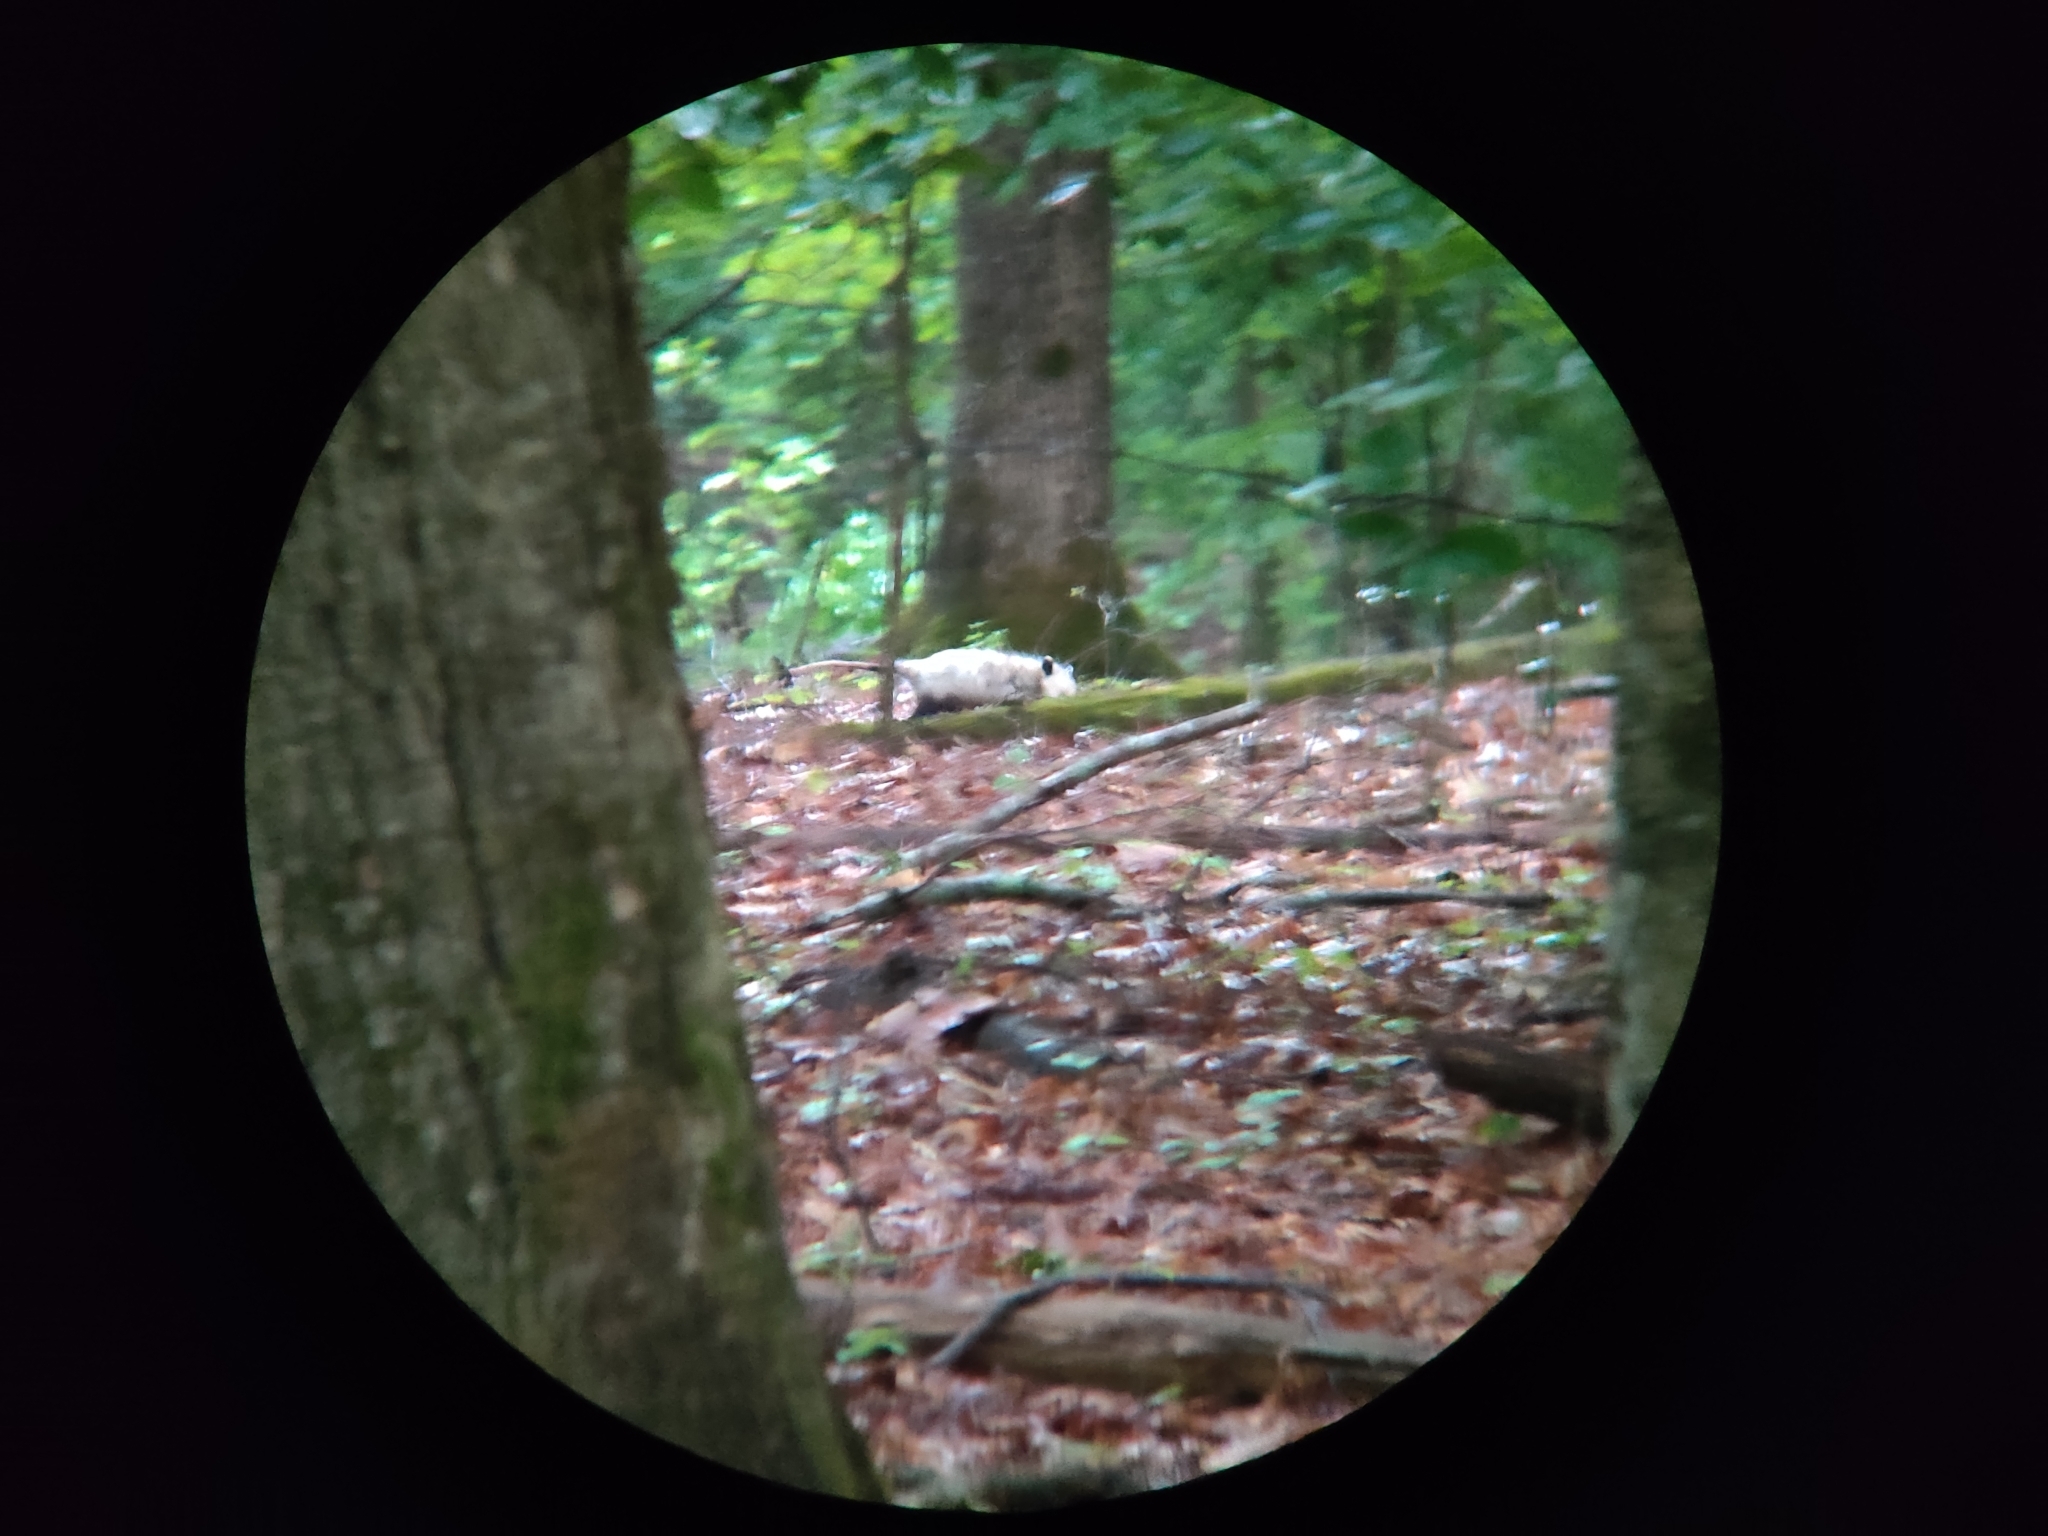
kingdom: Animalia
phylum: Chordata
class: Mammalia
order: Didelphimorphia
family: Didelphidae
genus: Didelphis
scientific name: Didelphis virginiana
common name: Virginia opossum
